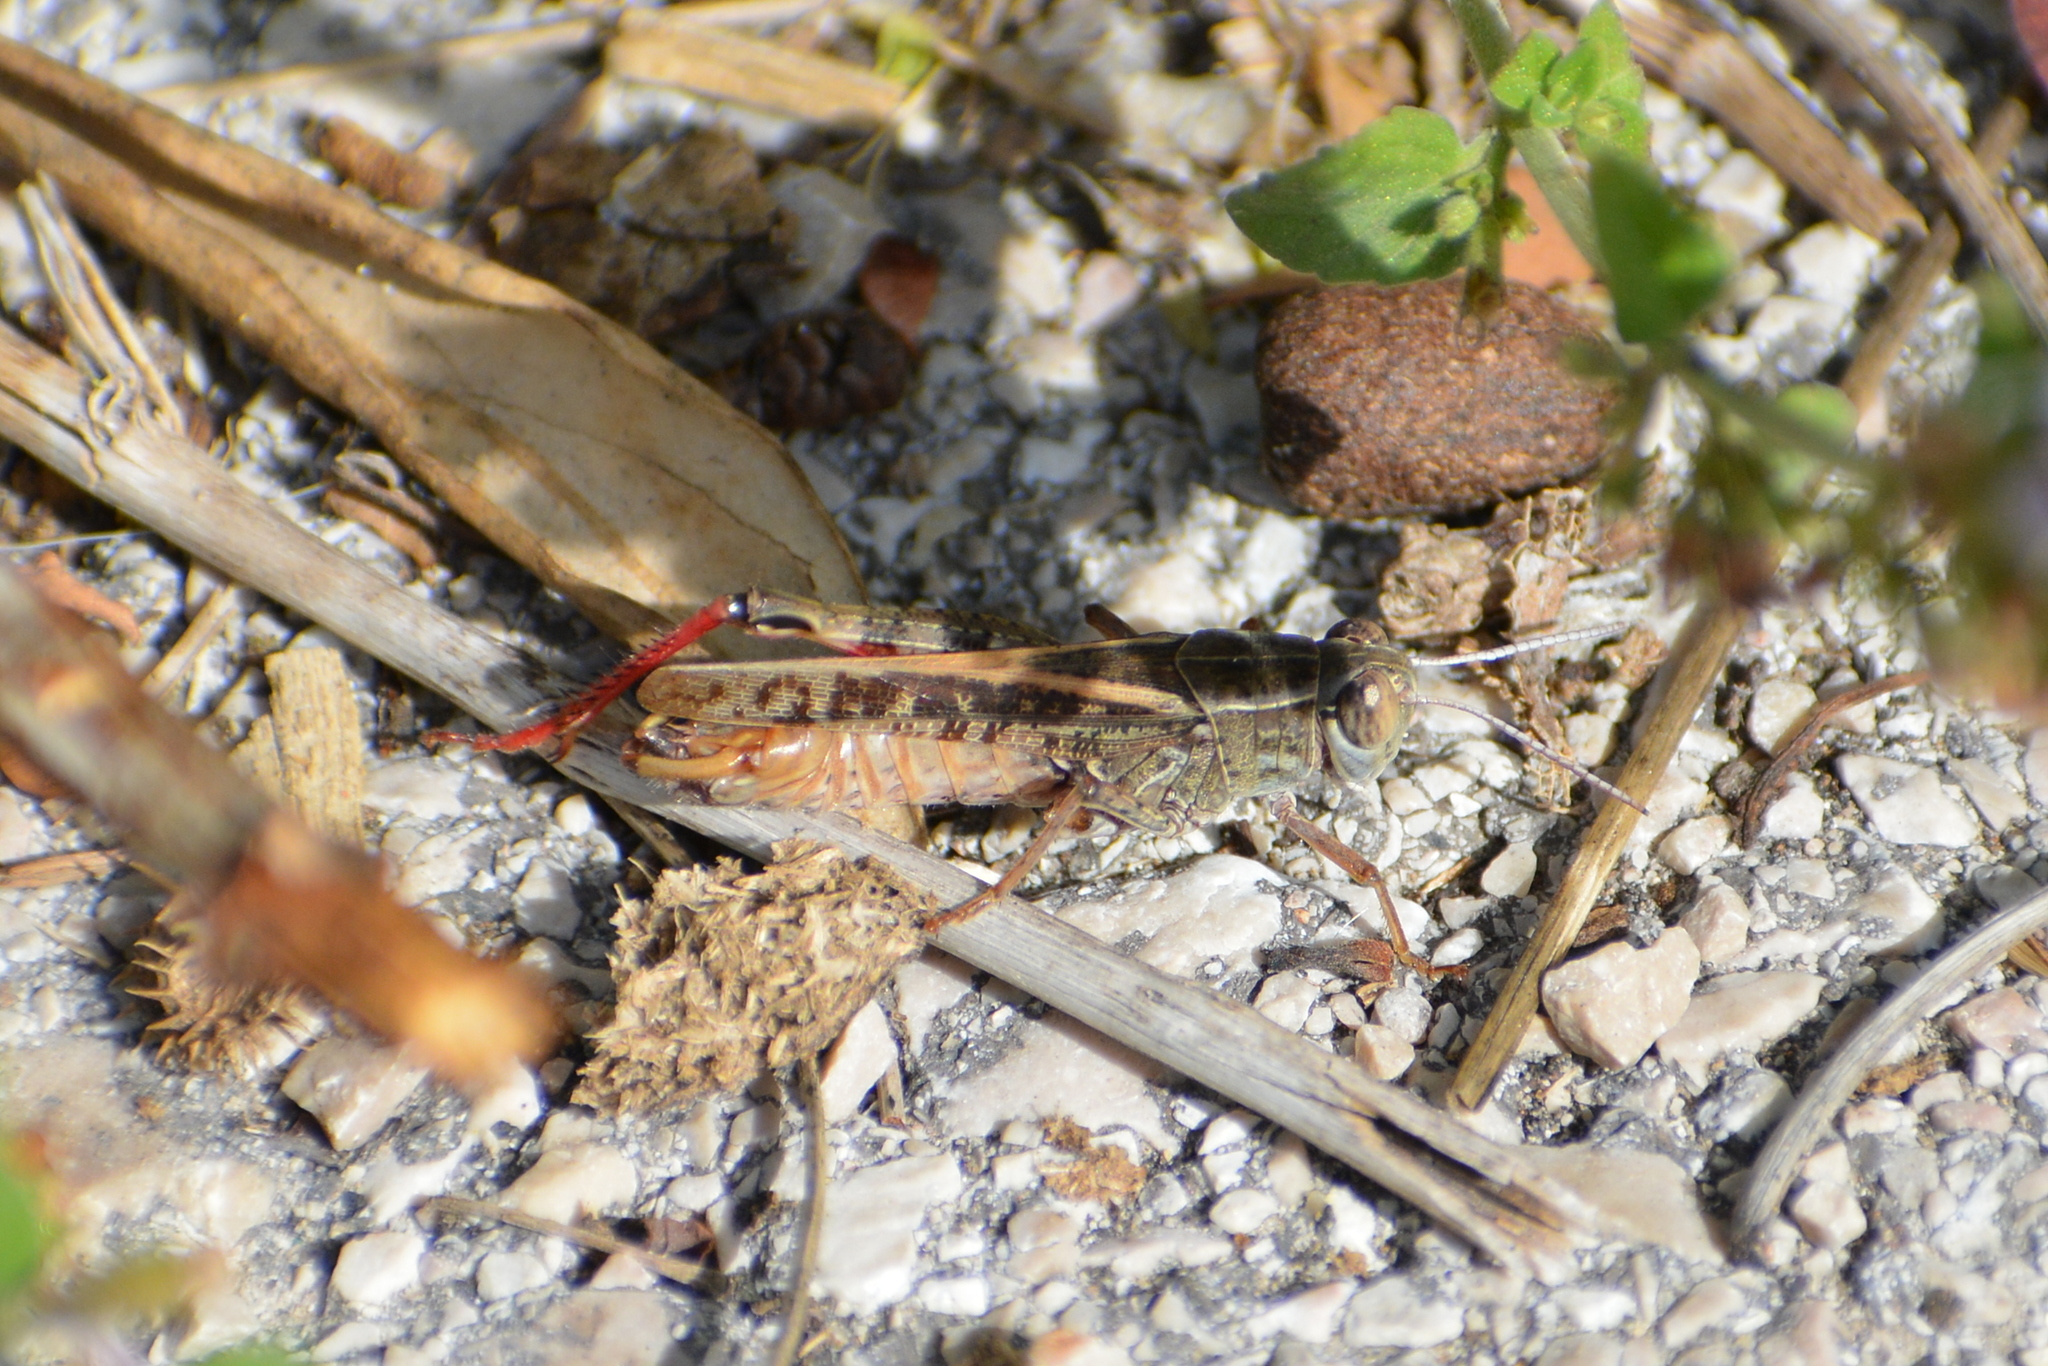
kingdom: Animalia
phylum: Arthropoda
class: Insecta
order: Orthoptera
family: Acrididae
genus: Calliptamus
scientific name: Calliptamus italicus
